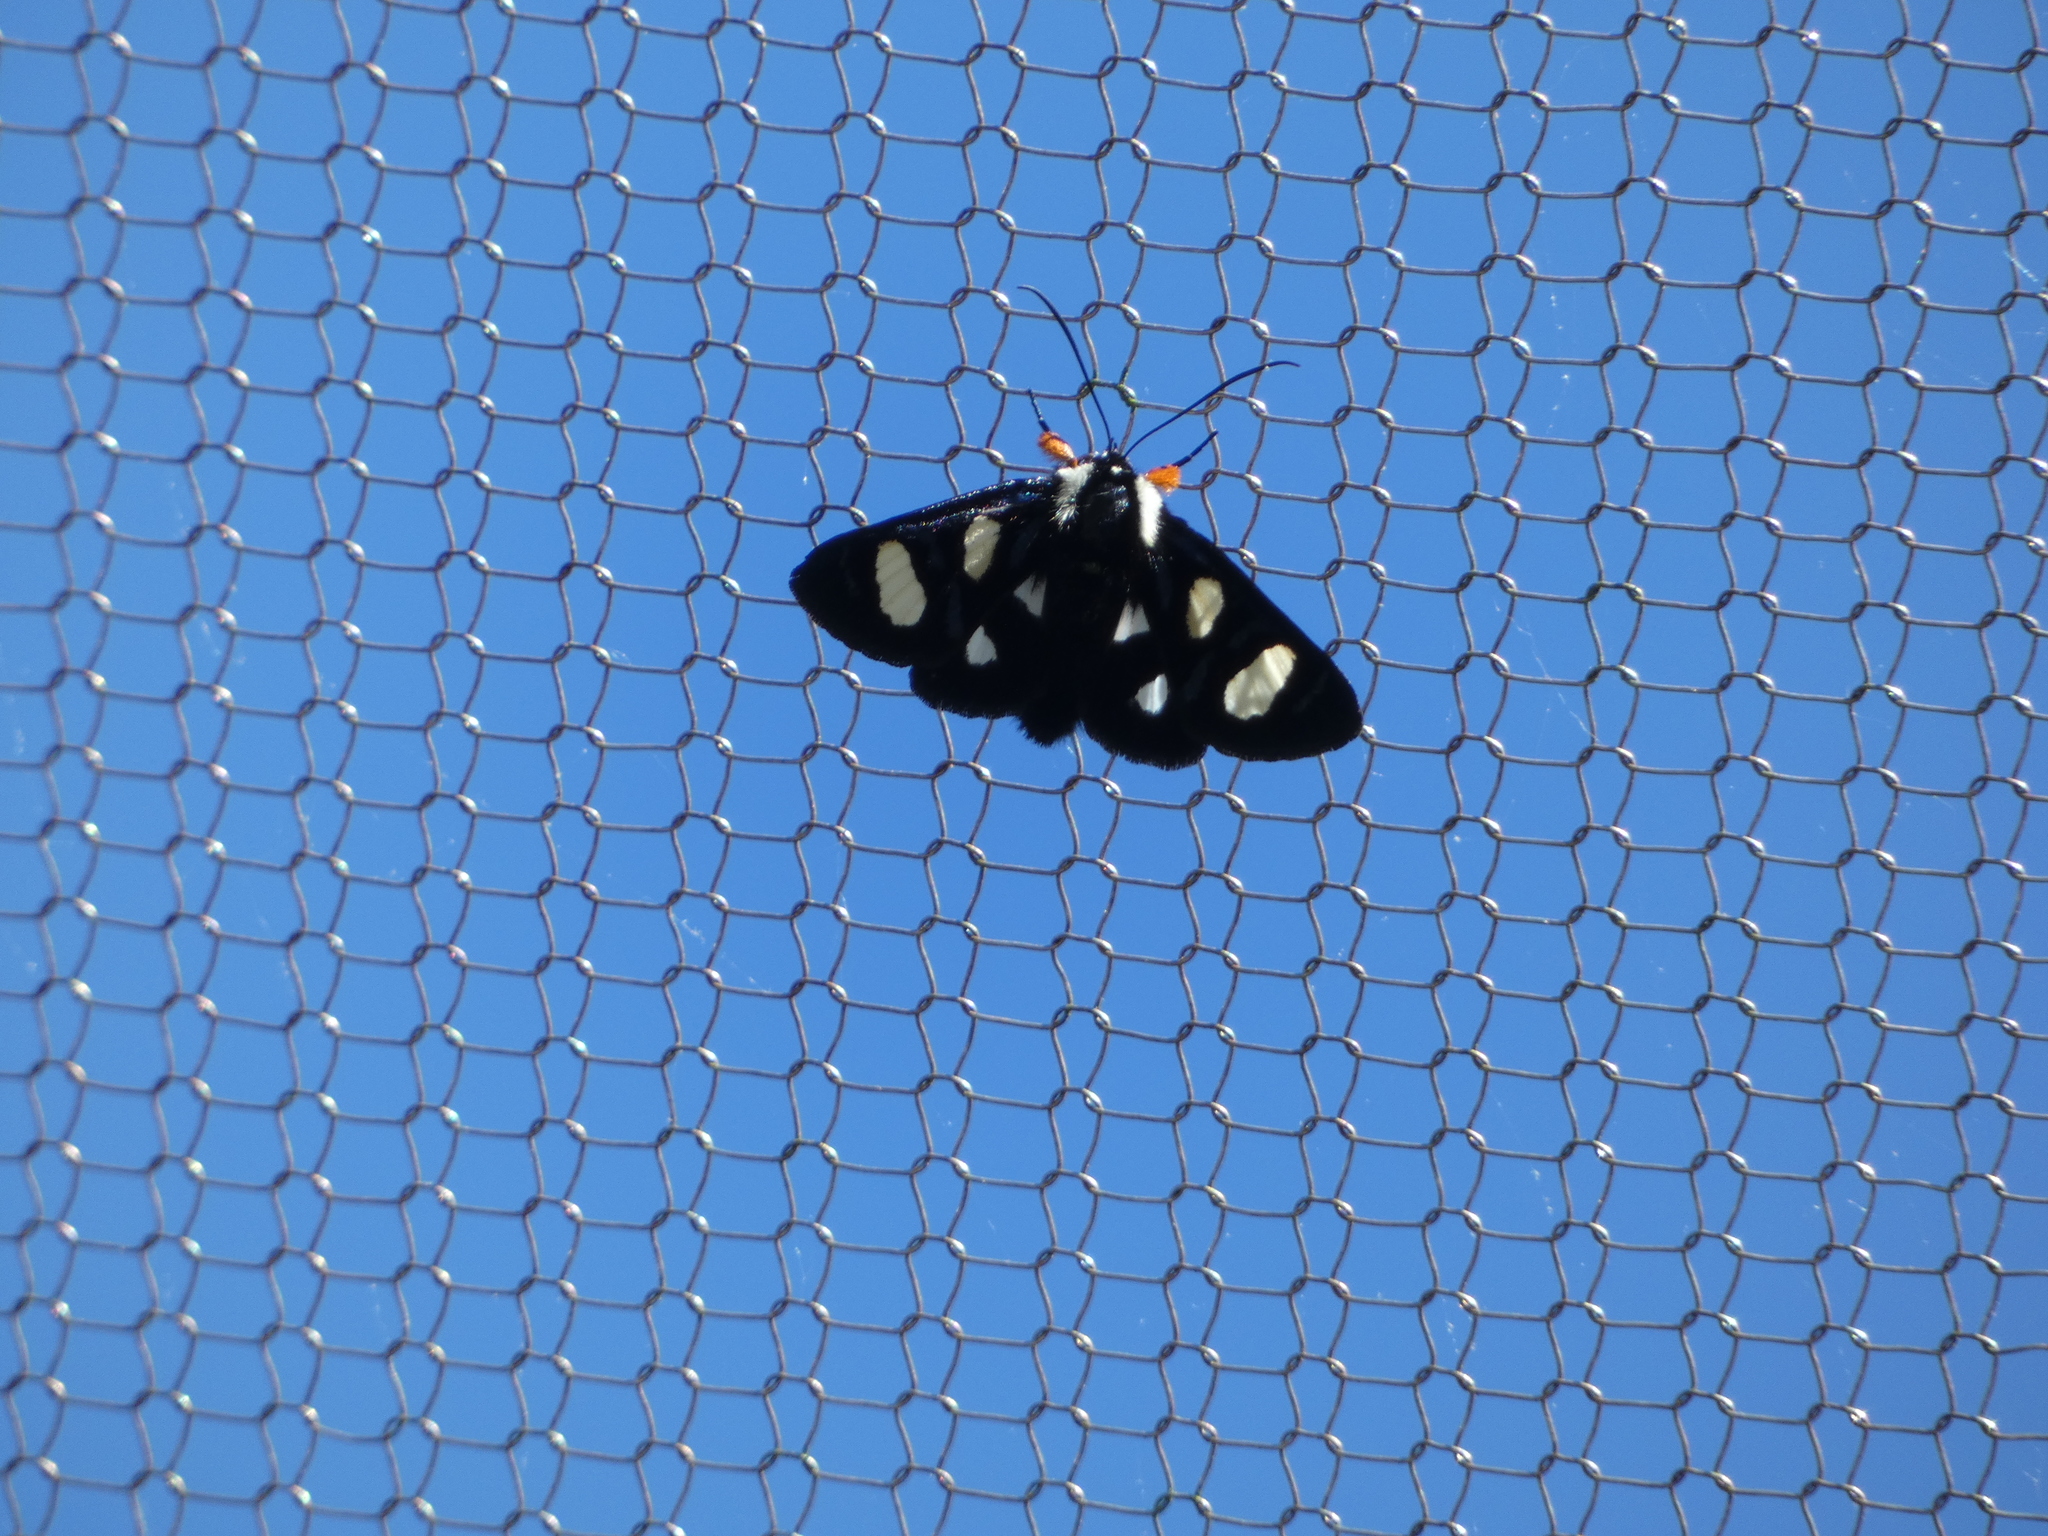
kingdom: Animalia
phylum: Arthropoda
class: Insecta
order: Lepidoptera
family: Noctuidae
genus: Alypia
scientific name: Alypia octomaculata
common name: Eight-spotted forester
